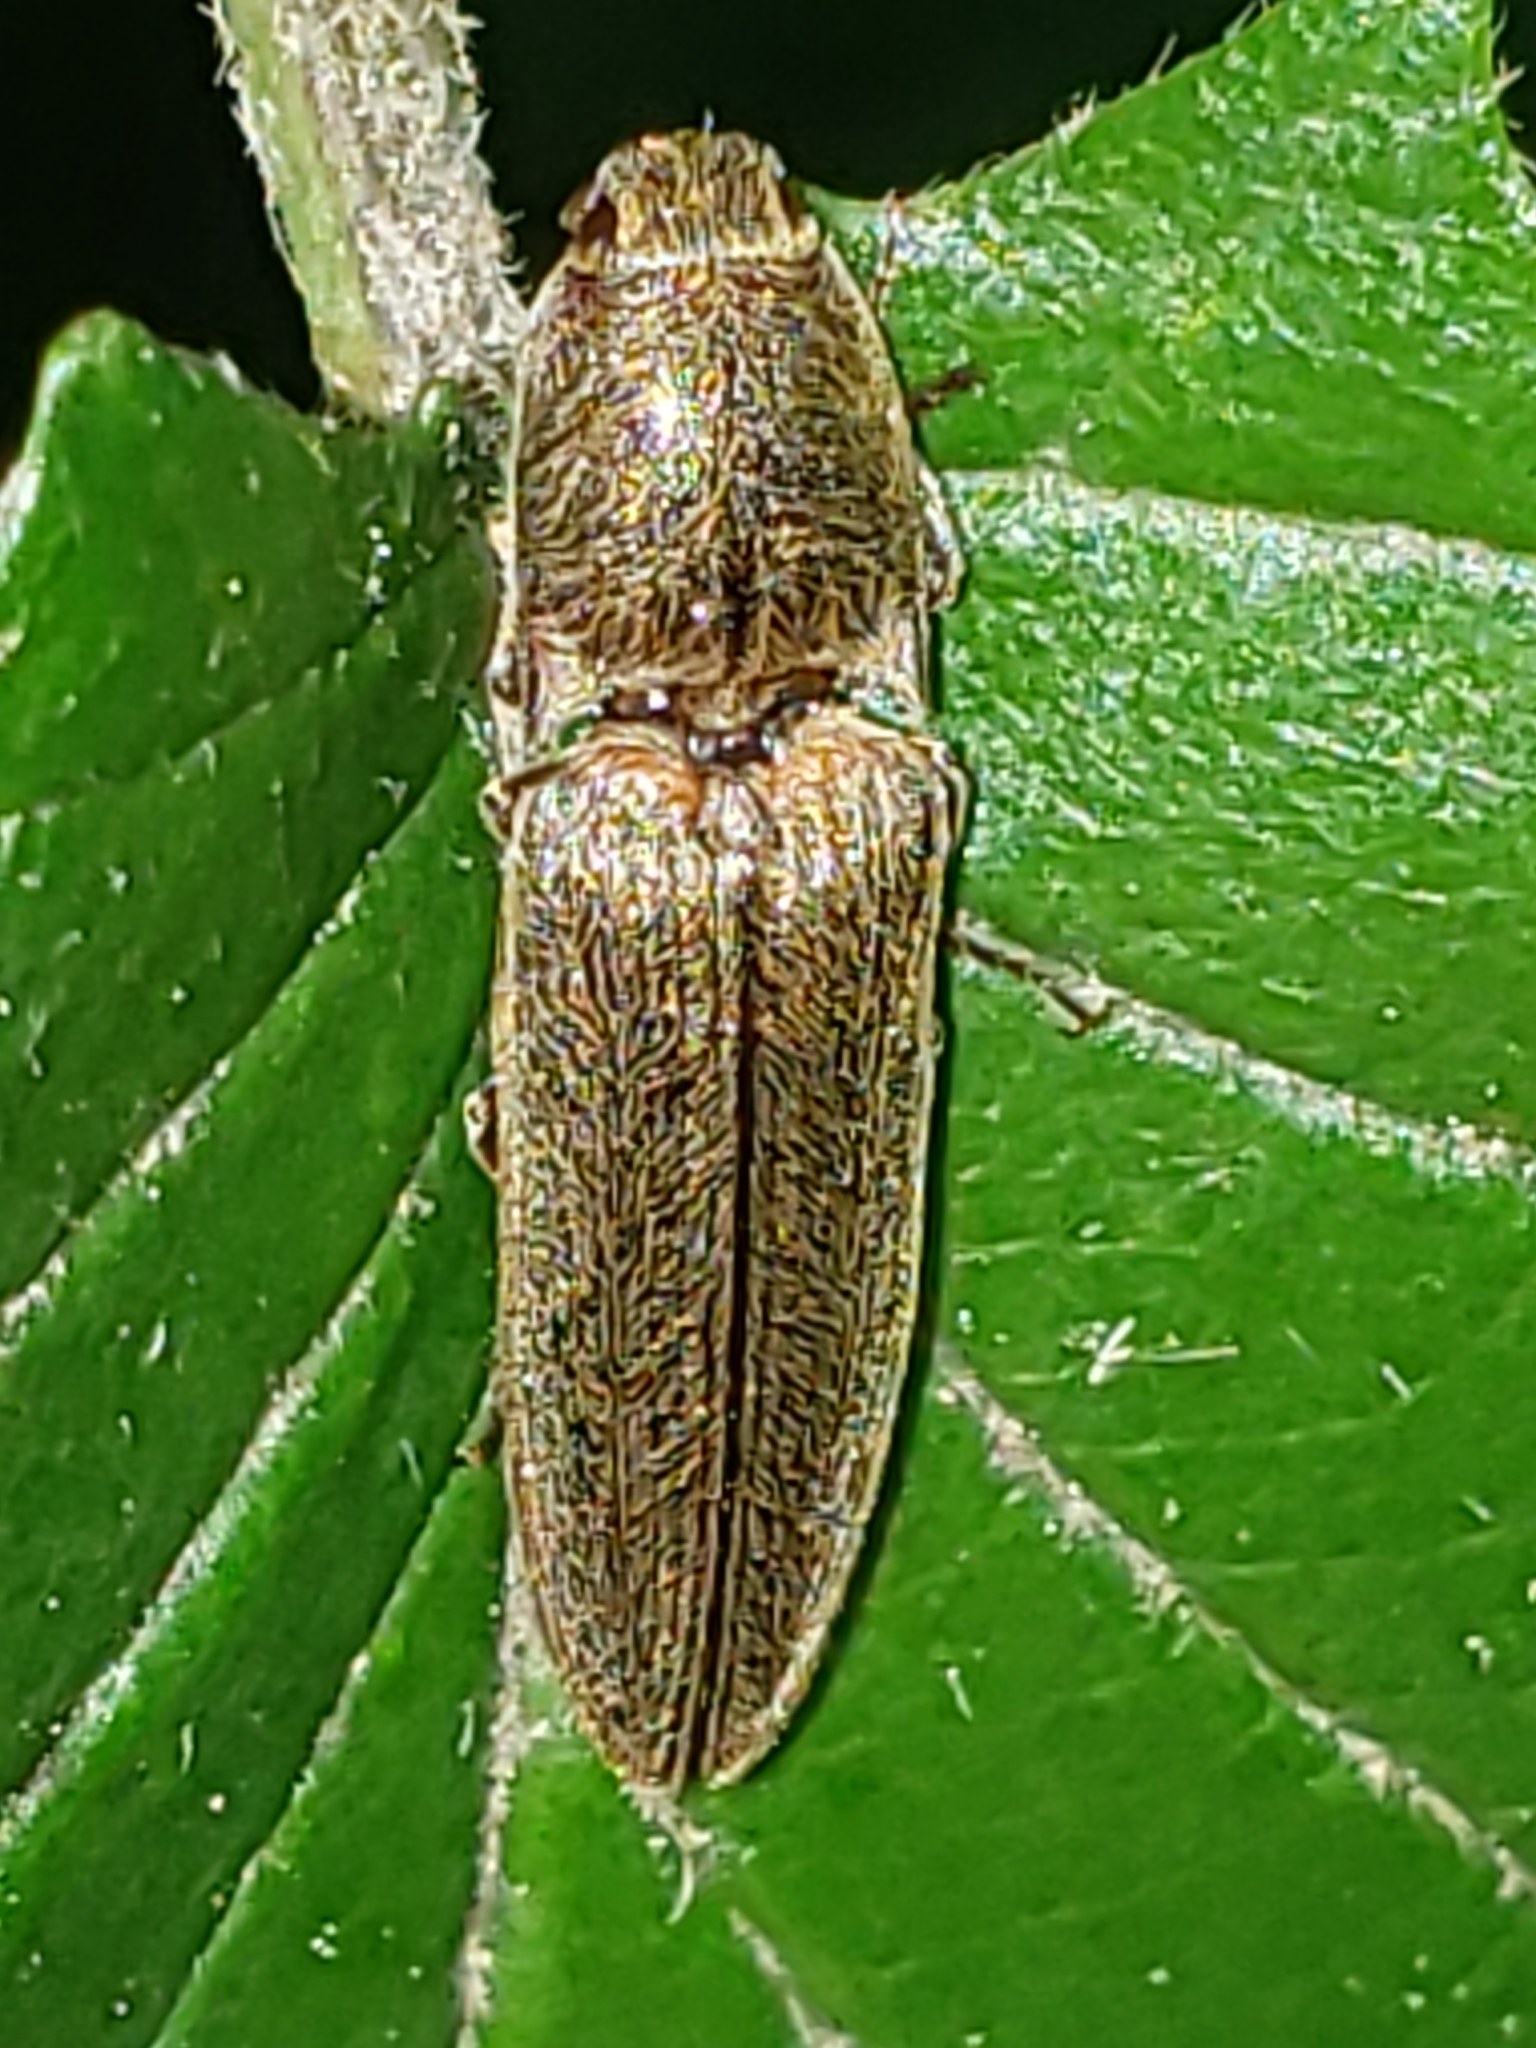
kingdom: Animalia
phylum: Arthropoda
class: Insecta
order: Coleoptera
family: Elateridae
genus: Gambrinus
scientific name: Gambrinus griseus
